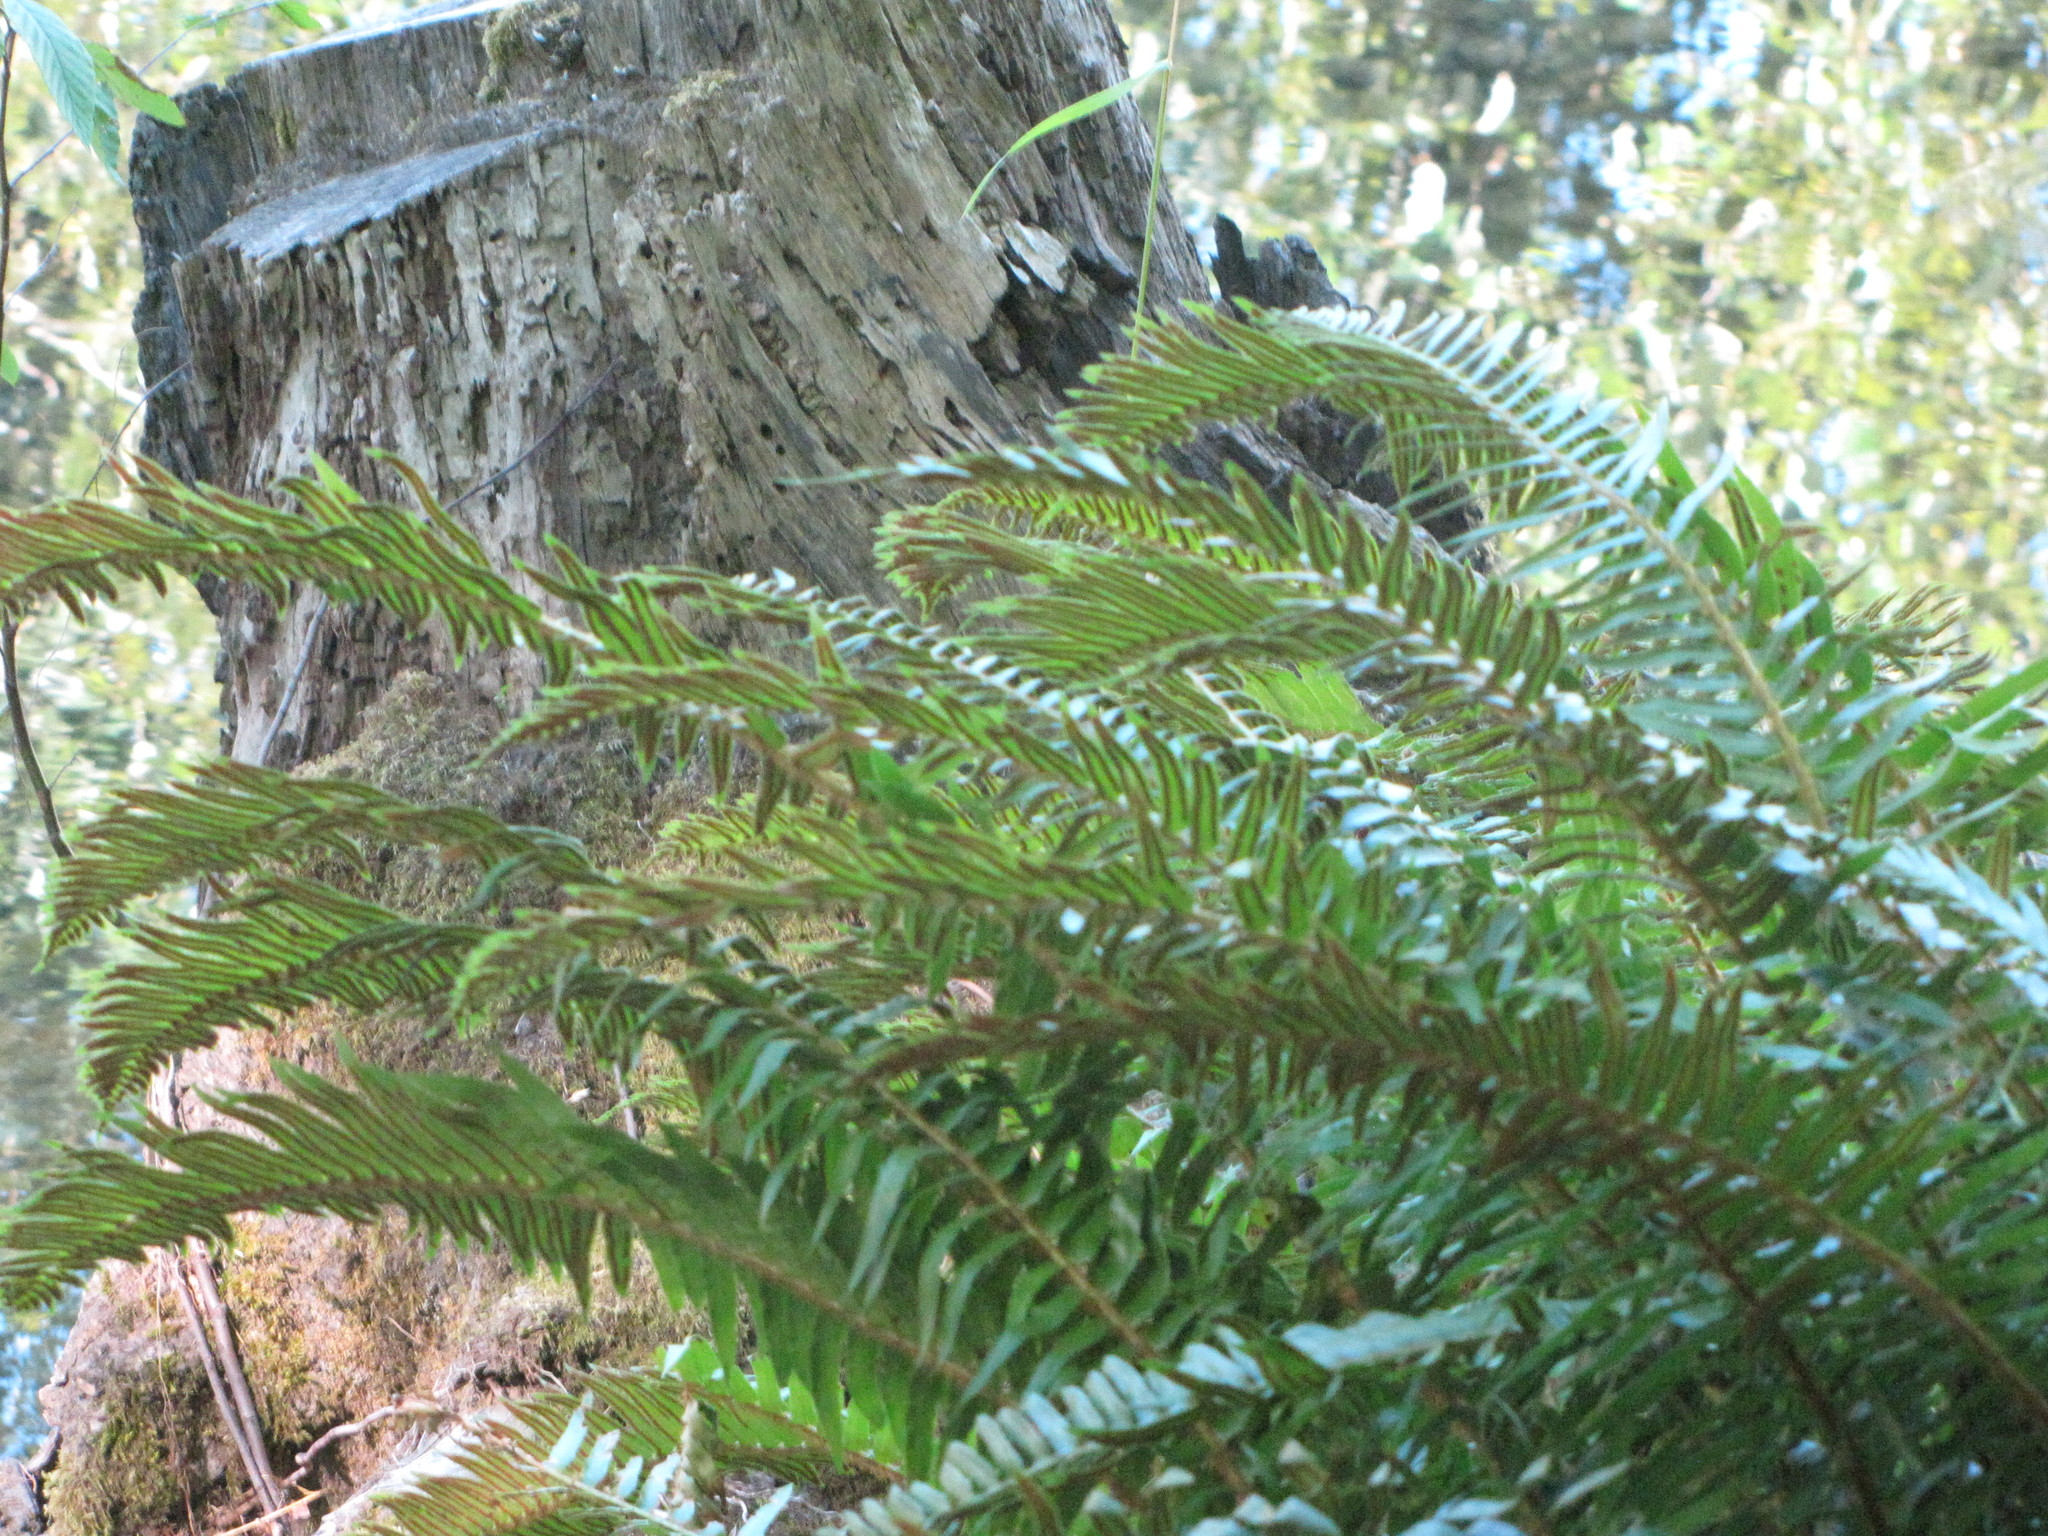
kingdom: Plantae
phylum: Tracheophyta
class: Polypodiopsida
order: Polypodiales
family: Dryopteridaceae
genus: Polystichum
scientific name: Polystichum munitum
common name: Western sword-fern
